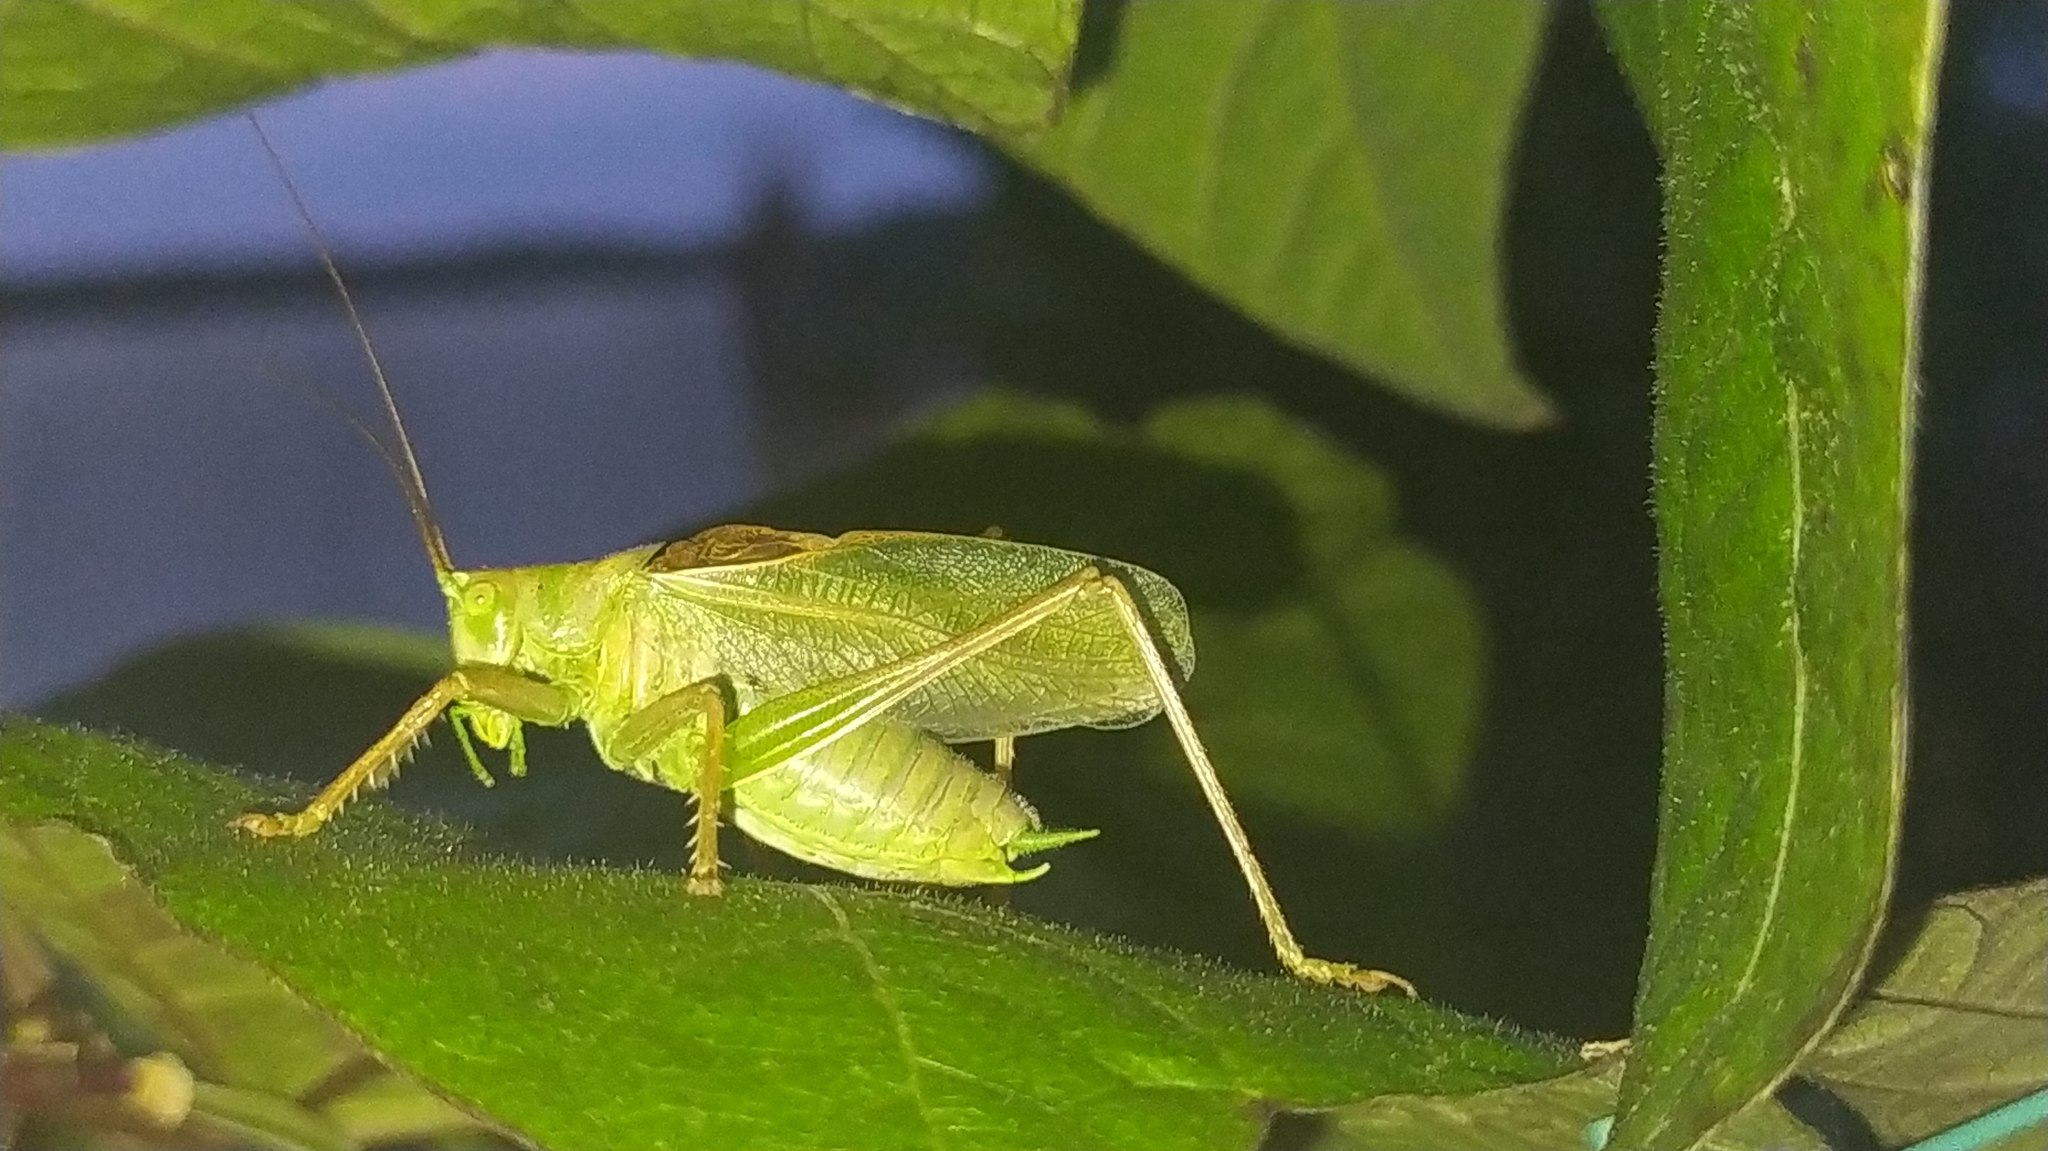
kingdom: Animalia
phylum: Arthropoda
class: Insecta
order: Orthoptera
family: Tettigoniidae
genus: Tettigonia
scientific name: Tettigonia cantans
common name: Upland green bush-cricket
